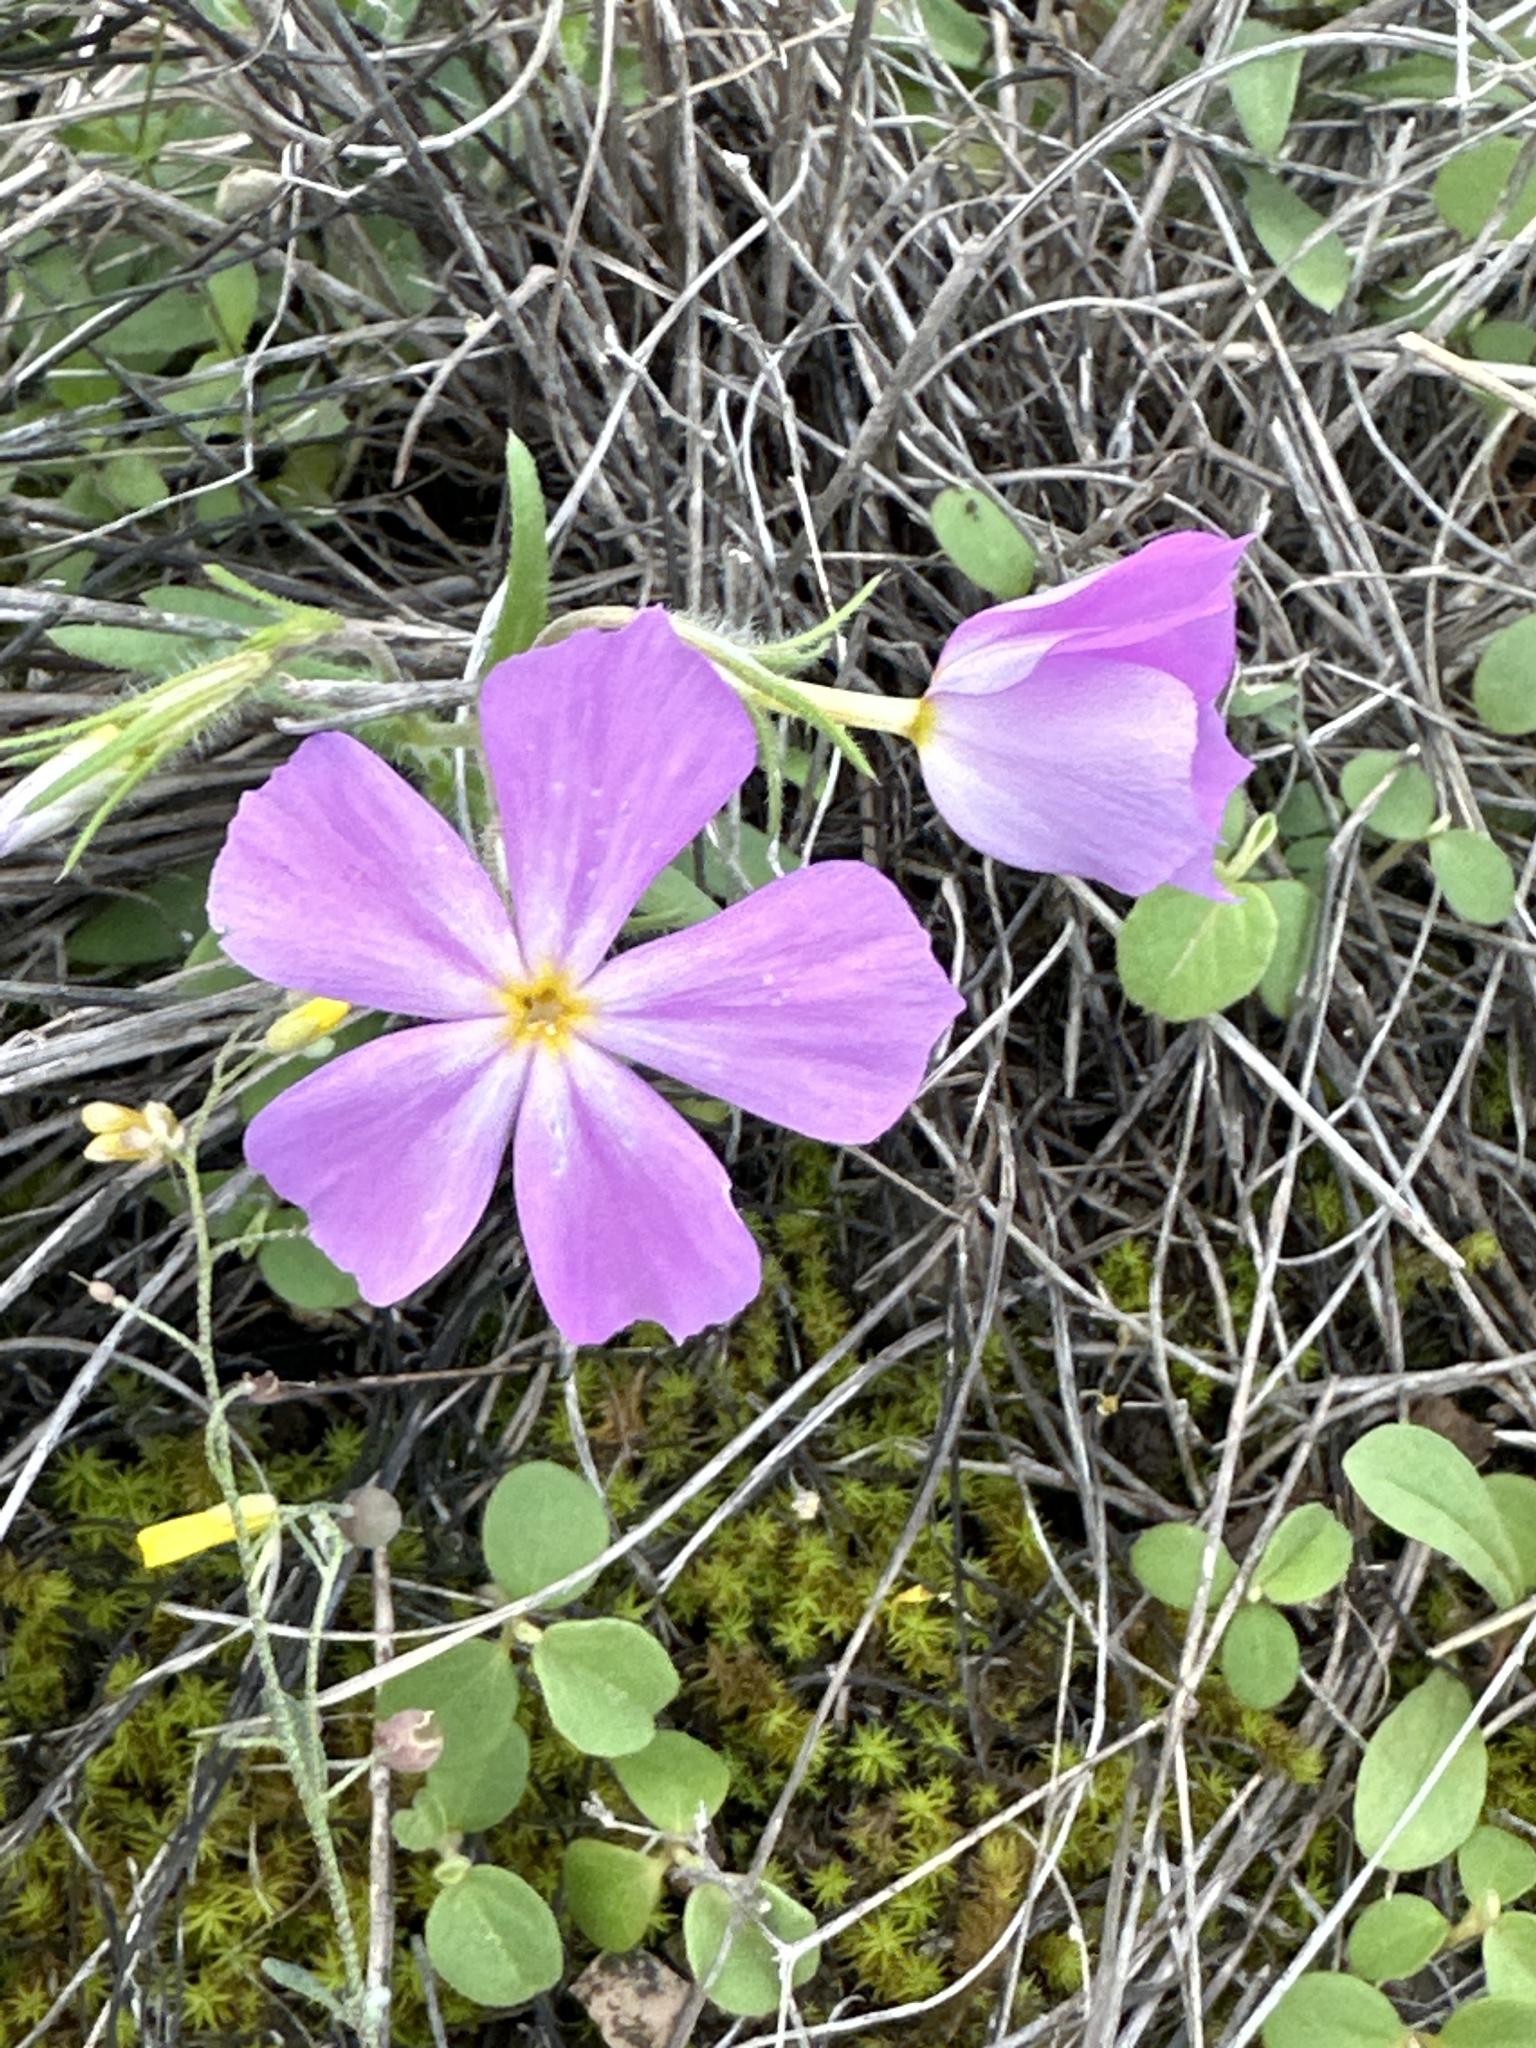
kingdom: Plantae
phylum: Tracheophyta
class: Magnoliopsida
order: Ericales
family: Polemoniaceae
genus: Phlox
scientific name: Phlox roemeriana
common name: Roemer's phlox
